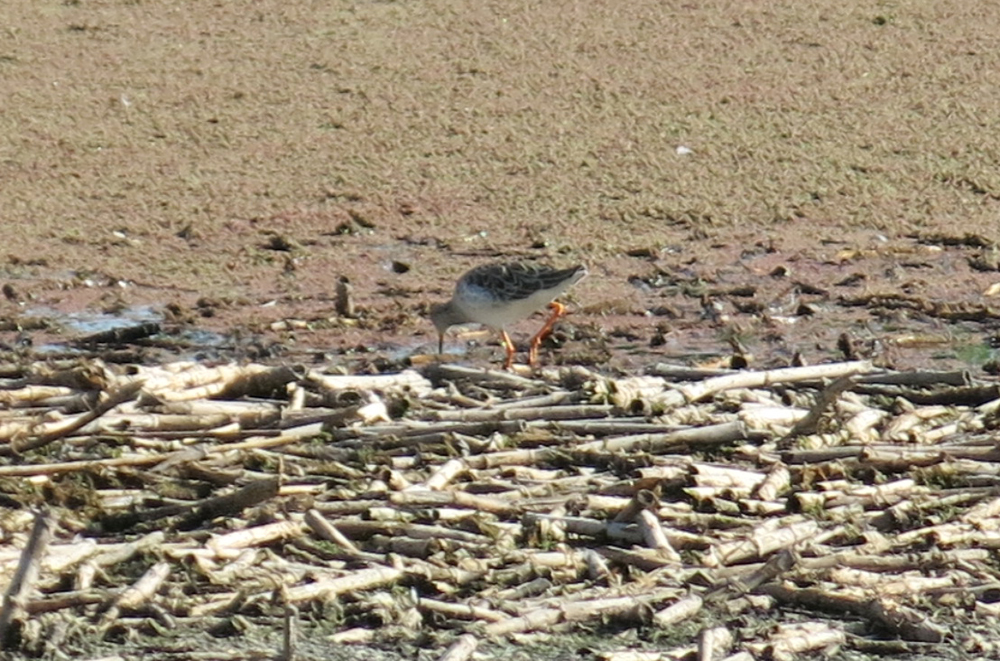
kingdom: Animalia
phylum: Chordata
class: Aves
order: Charadriiformes
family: Scolopacidae
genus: Calidris
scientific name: Calidris pugnax
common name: Ruff
